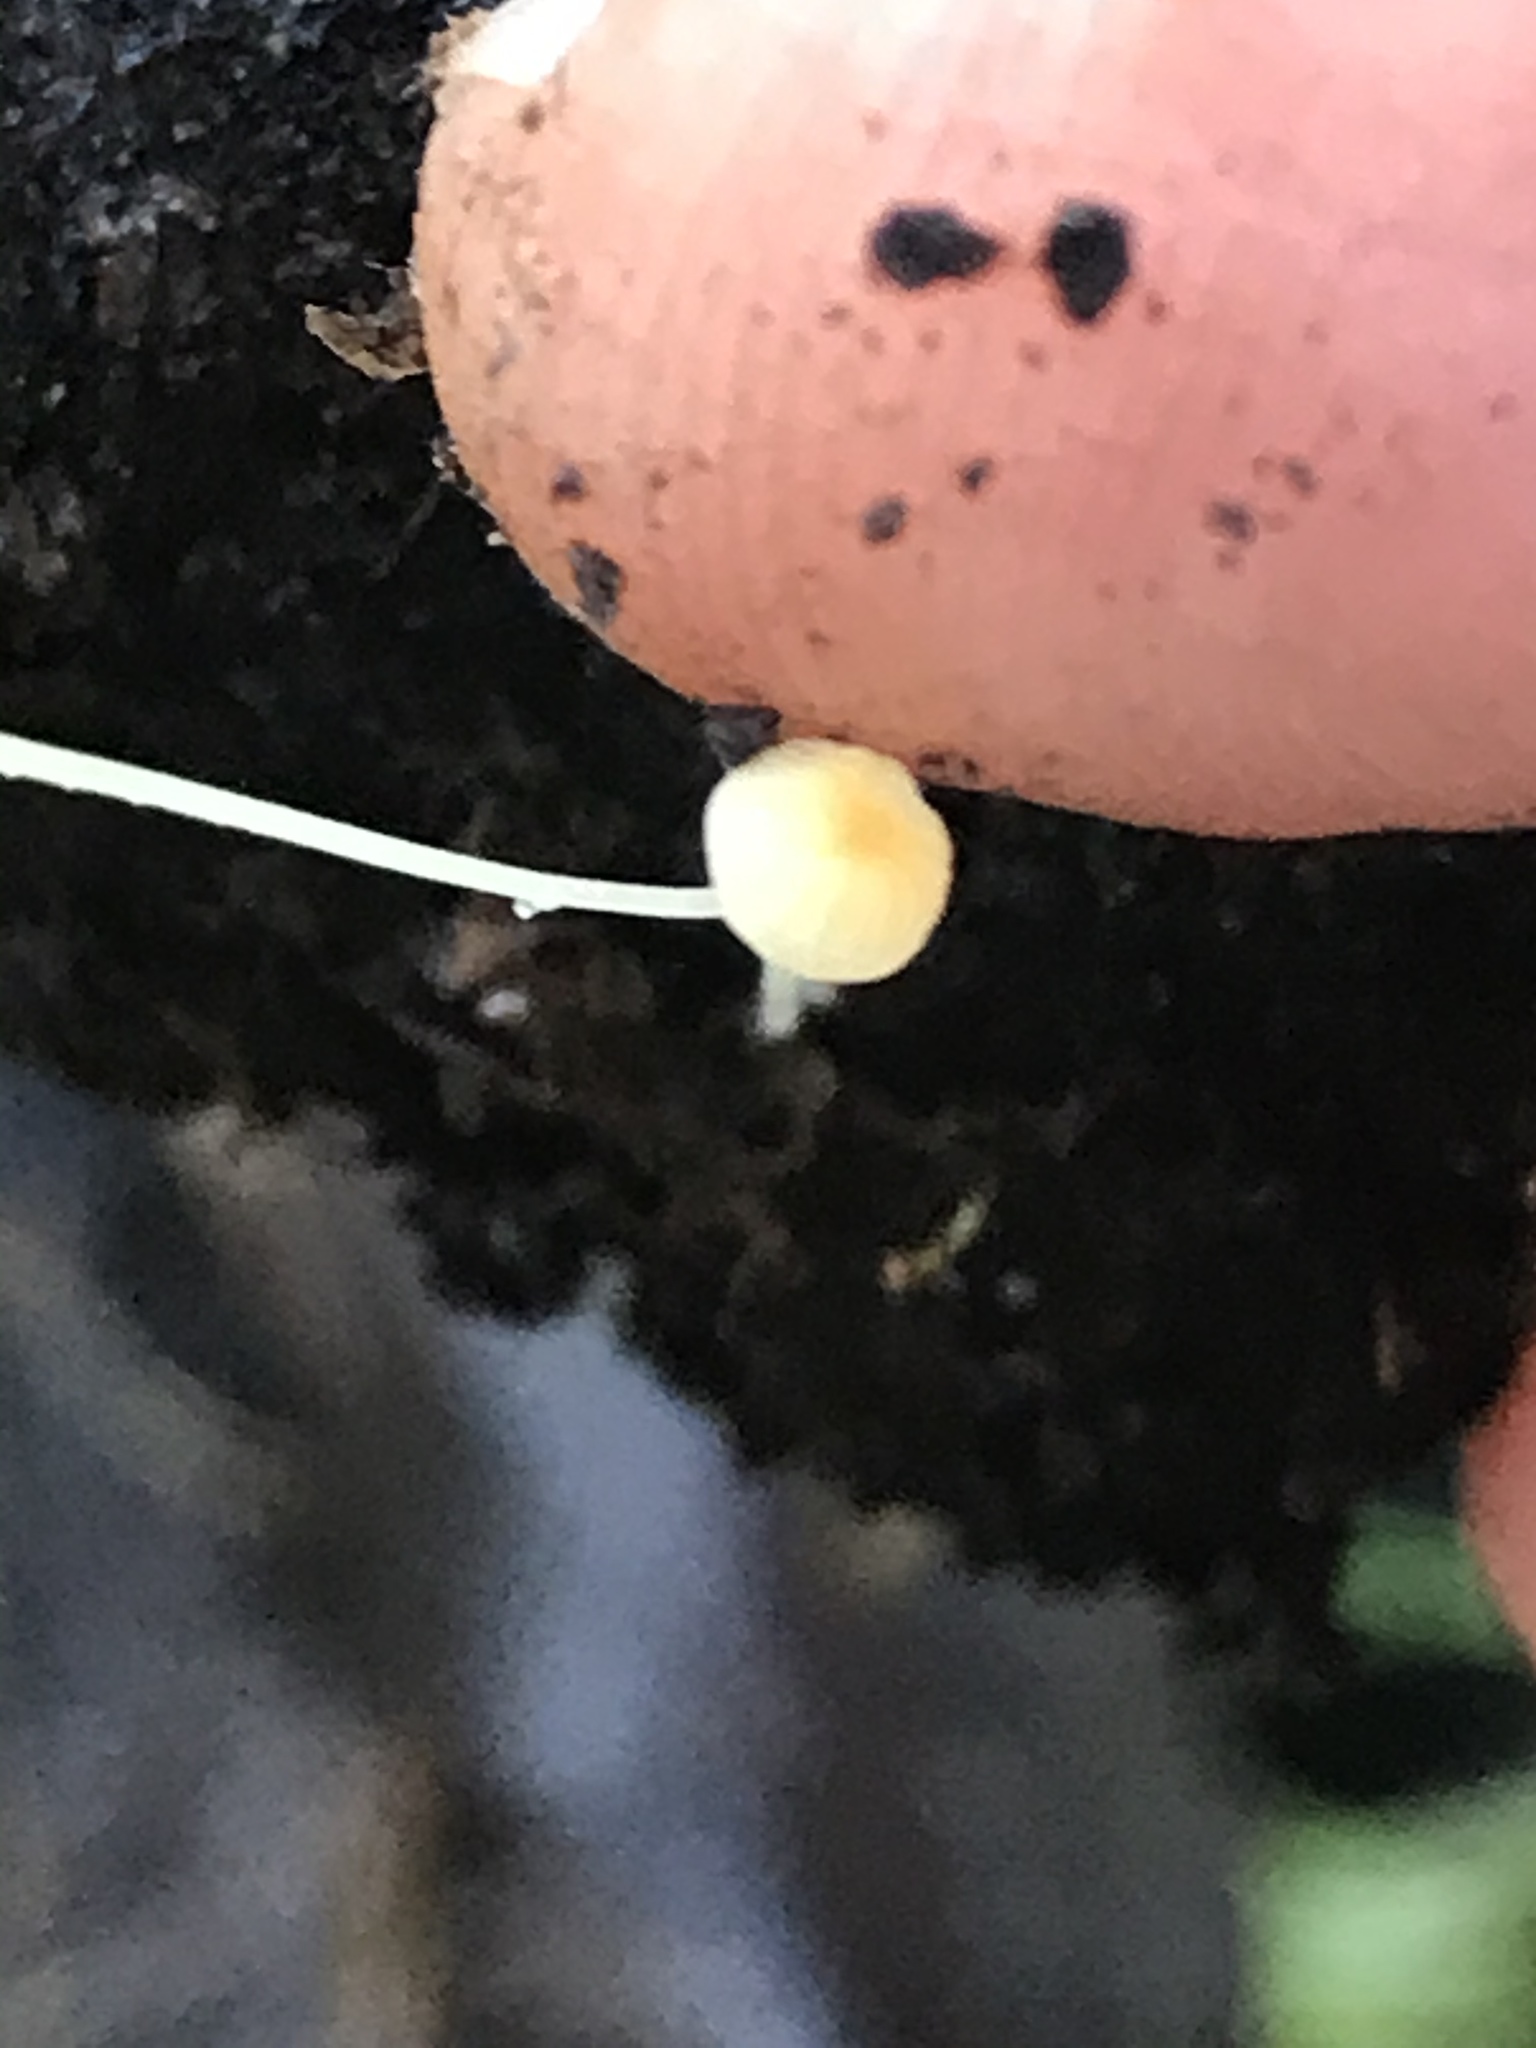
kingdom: Fungi
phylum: Basidiomycota
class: Agaricomycetes
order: Agaricales
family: Porotheleaceae
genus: Phloeomana
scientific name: Phloeomana speirea
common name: Bark bonnet
